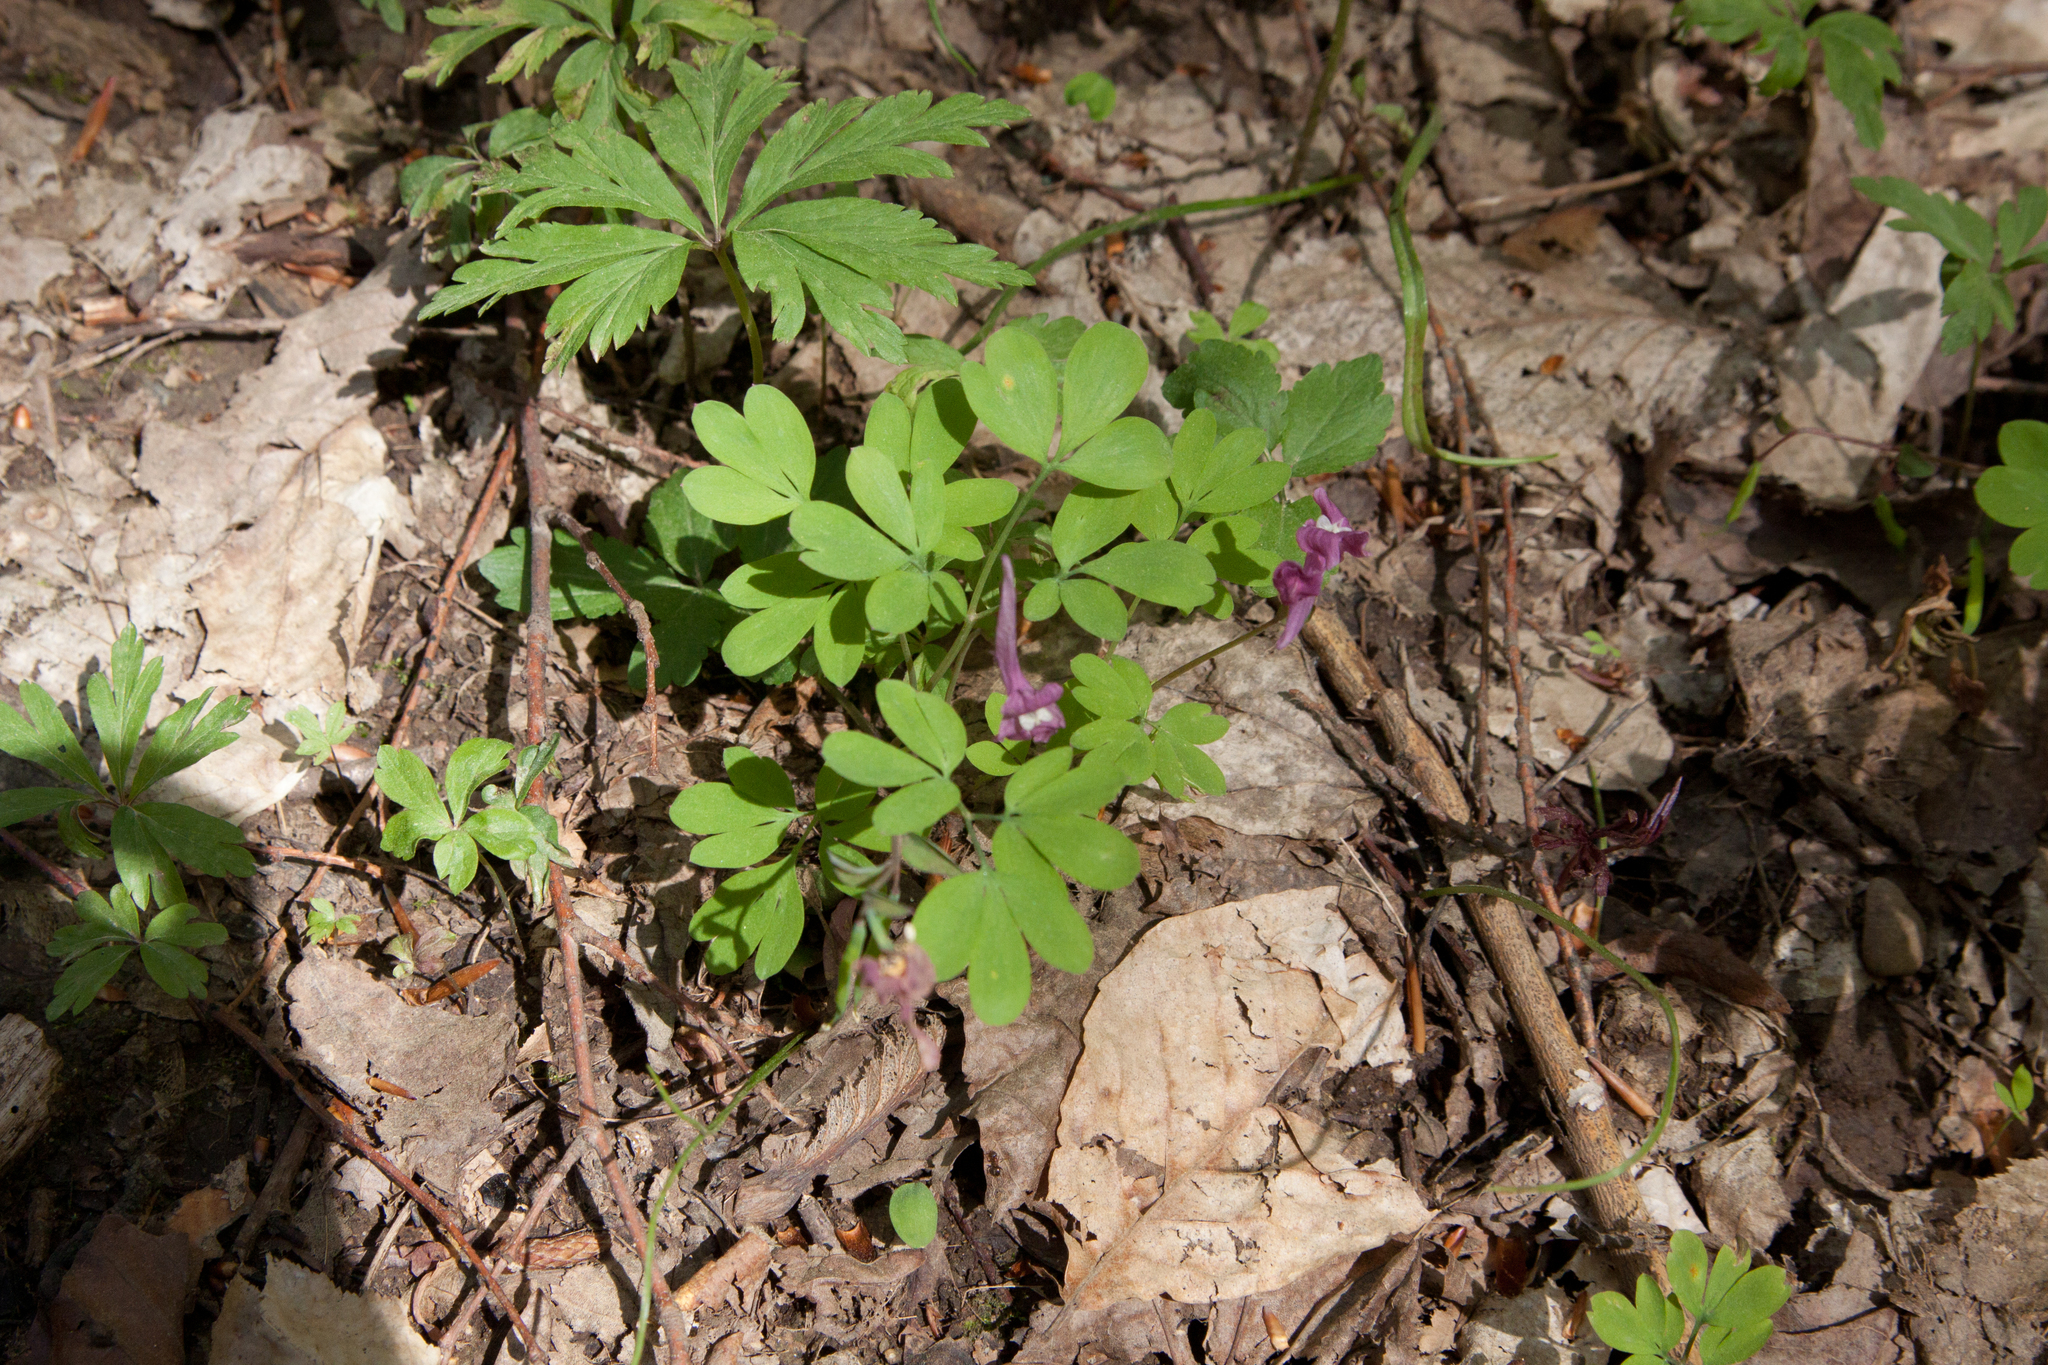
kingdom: Plantae
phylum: Tracheophyta
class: Magnoliopsida
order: Ranunculales
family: Papaveraceae
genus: Corydalis
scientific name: Corydalis caucasica
